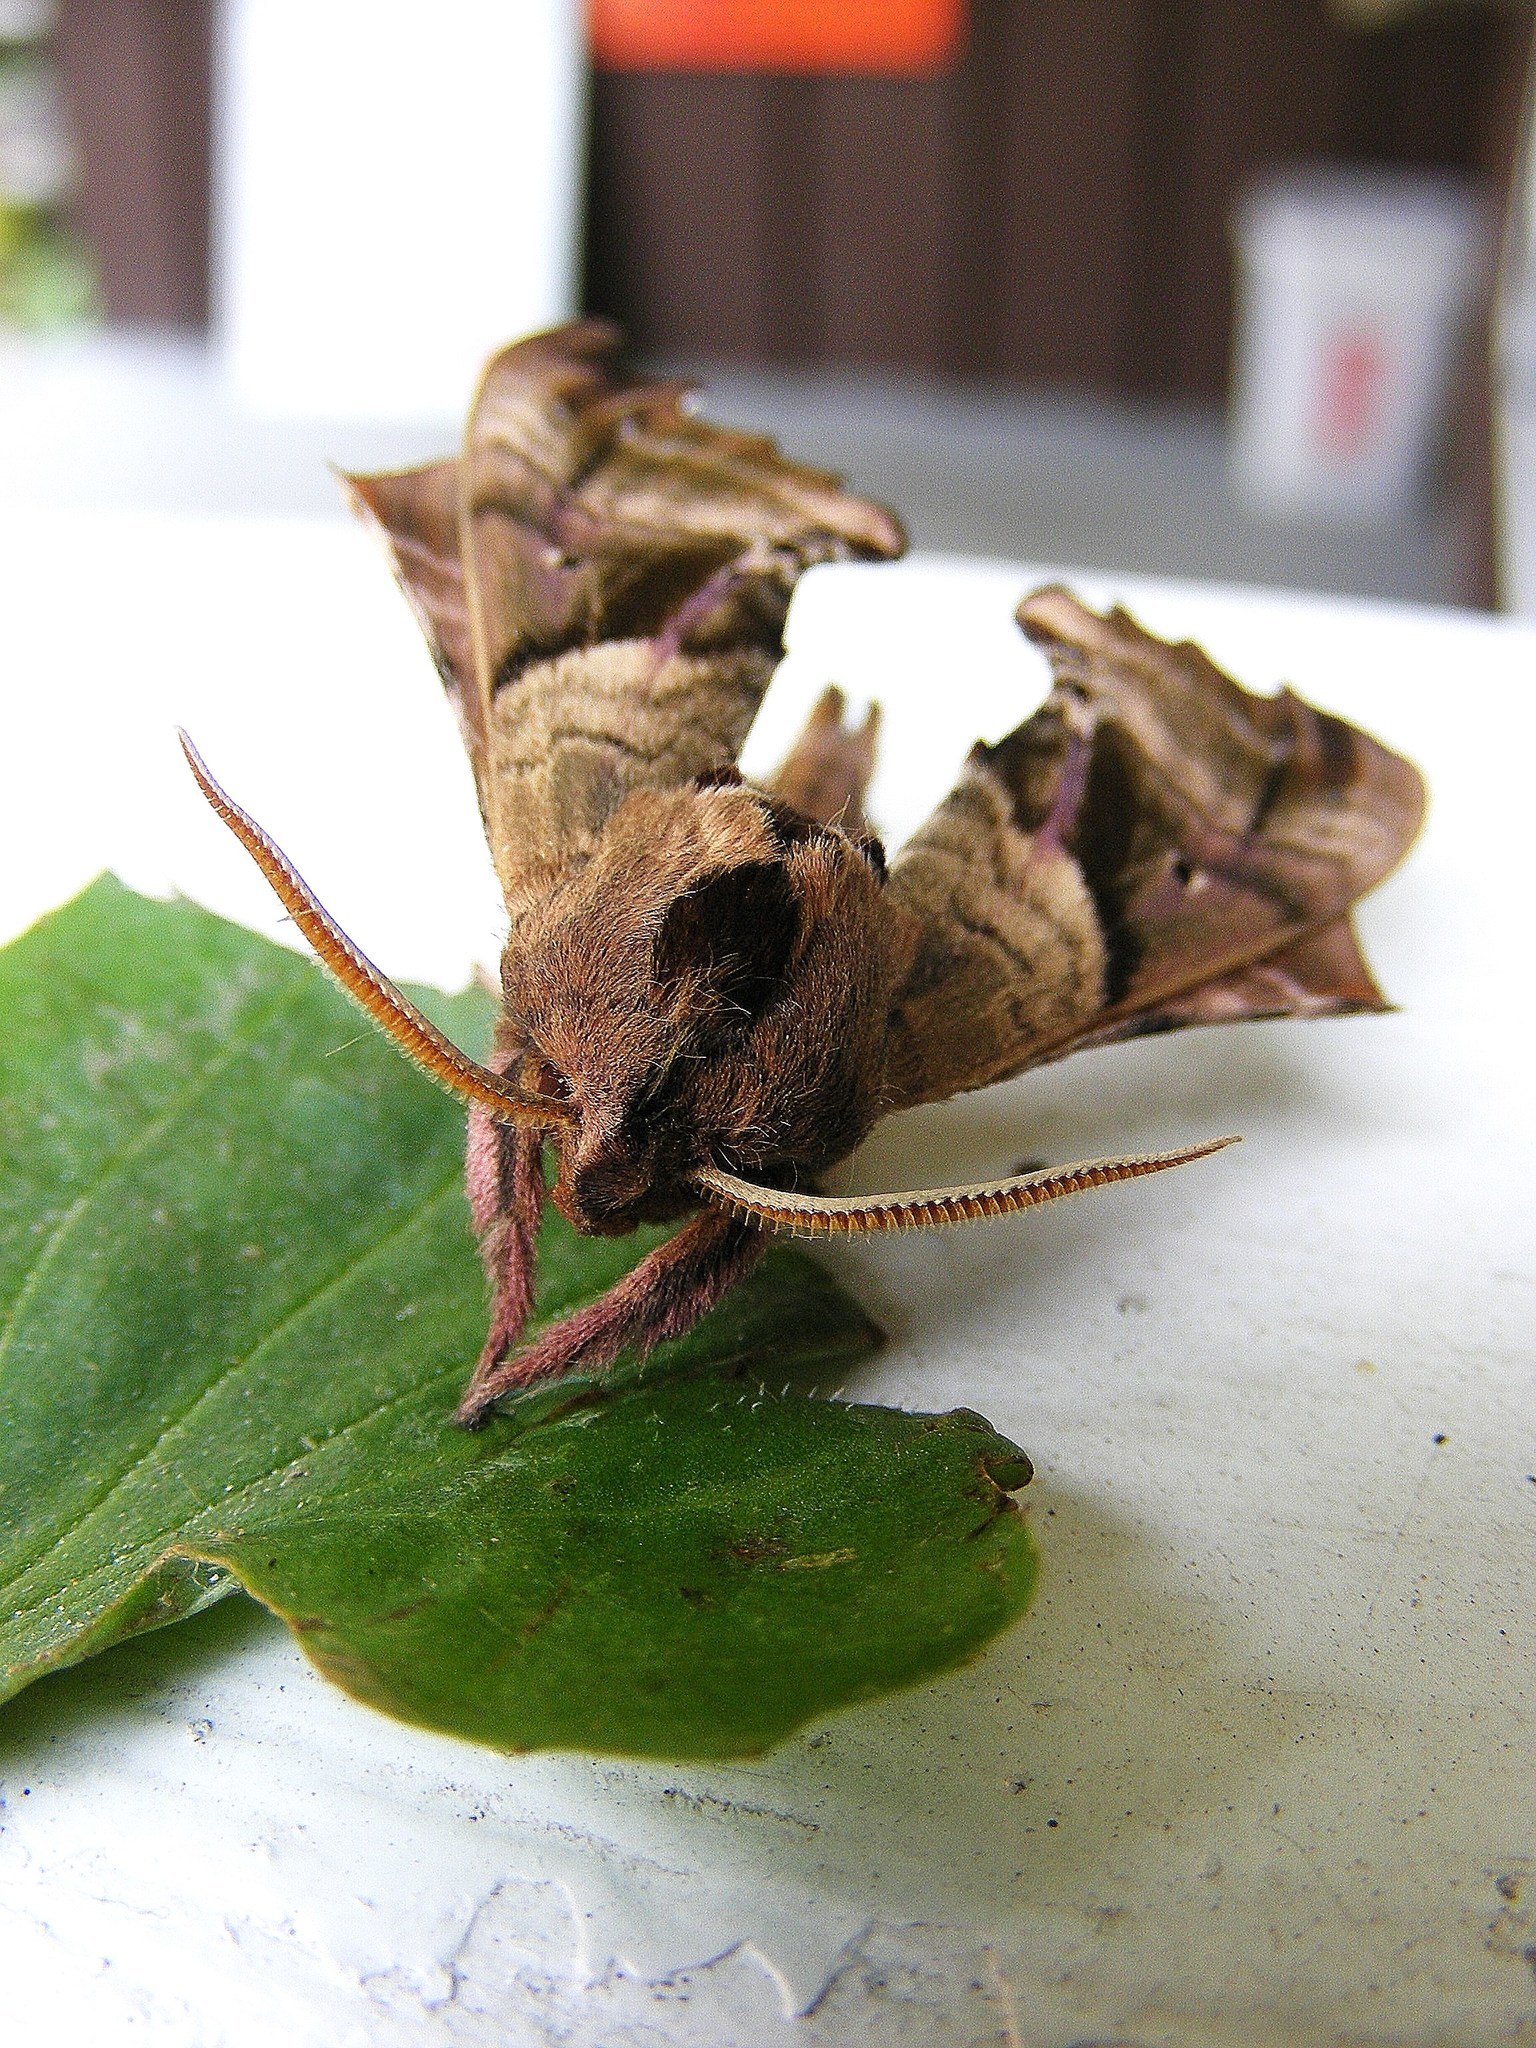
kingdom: Animalia
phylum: Arthropoda
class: Insecta
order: Lepidoptera
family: Sphingidae
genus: Paonias
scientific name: Paonias excaecata
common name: Blind-eyed sphinx
